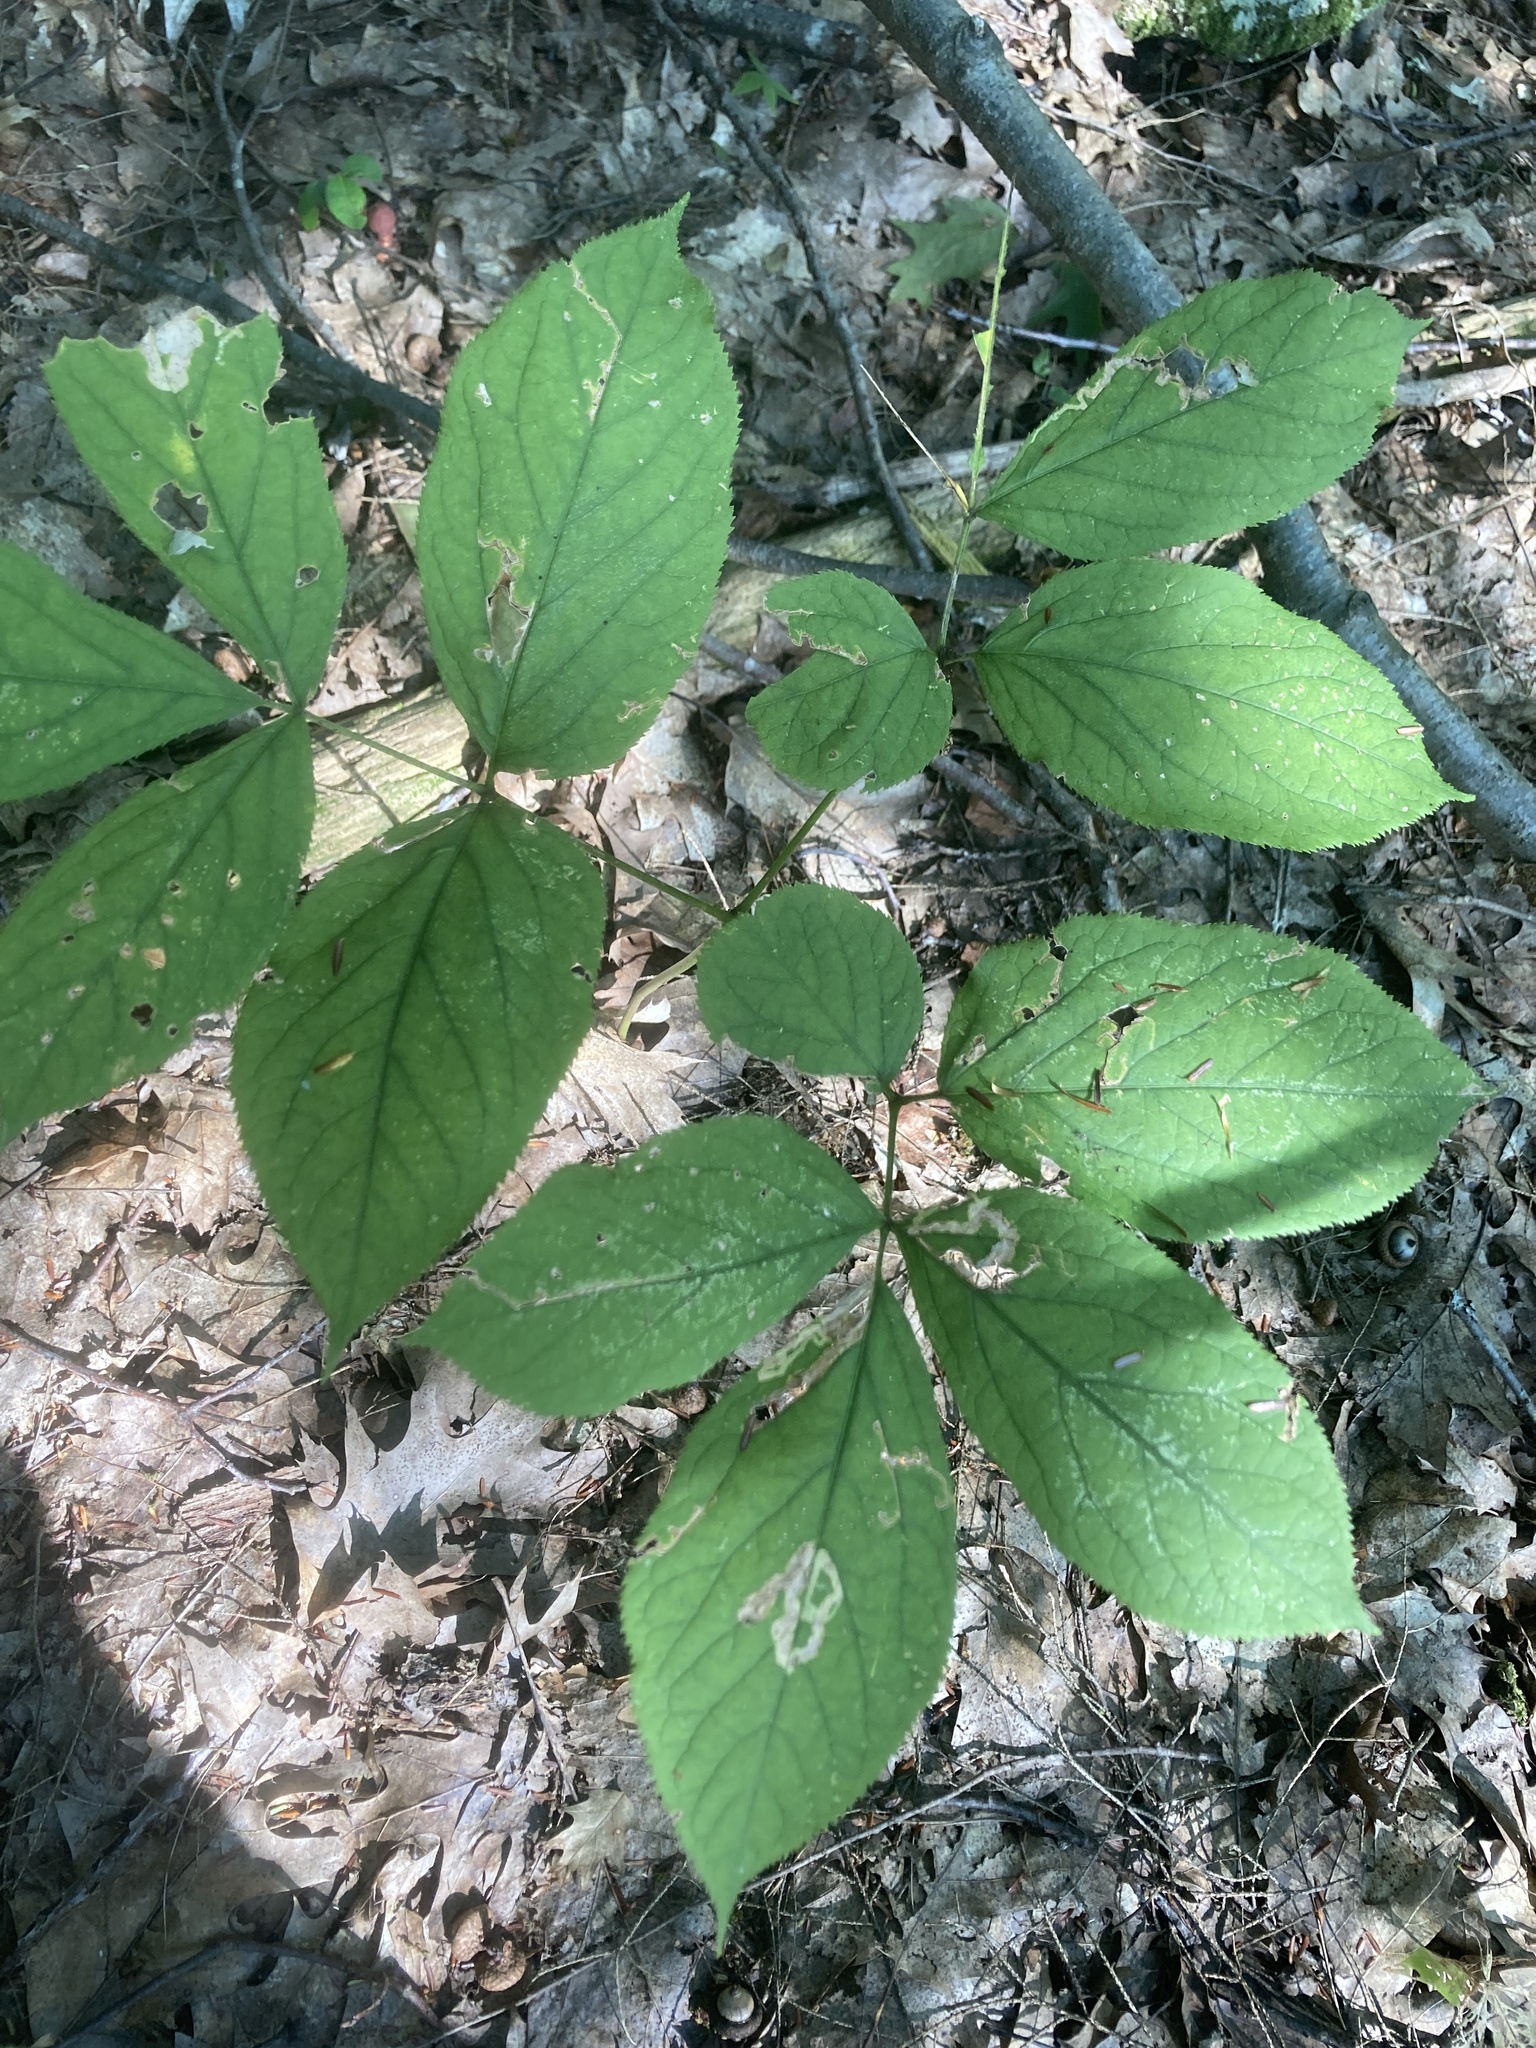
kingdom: Plantae
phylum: Tracheophyta
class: Magnoliopsida
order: Apiales
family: Araliaceae
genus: Aralia
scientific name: Aralia nudicaulis
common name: Wild sarsaparilla
